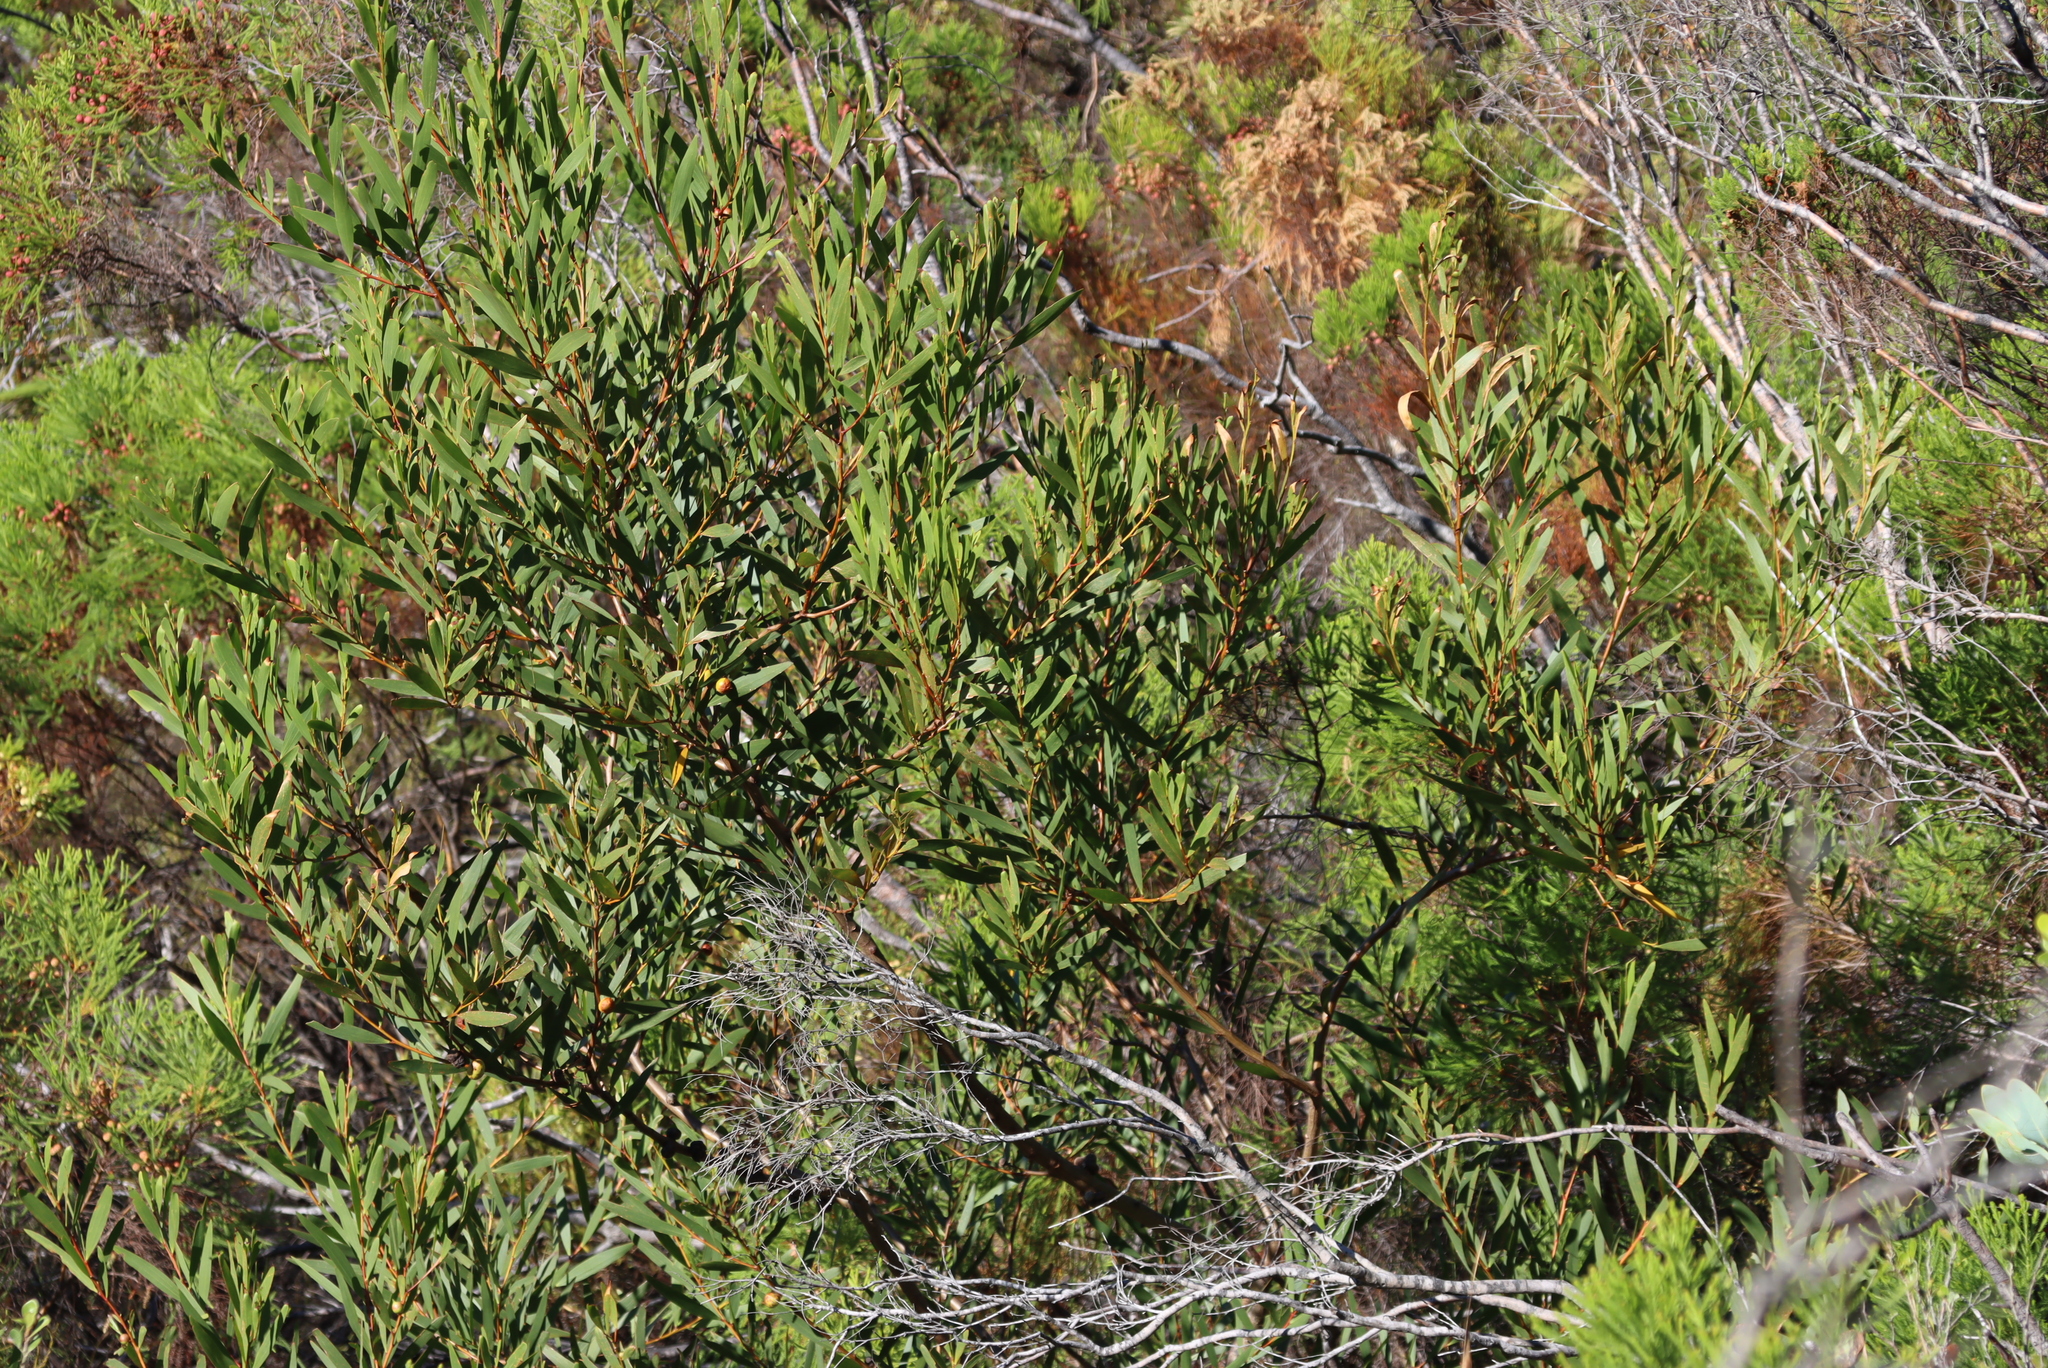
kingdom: Plantae
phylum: Tracheophyta
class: Magnoliopsida
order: Fabales
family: Fabaceae
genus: Acacia
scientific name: Acacia longifolia
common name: Sydney golden wattle
